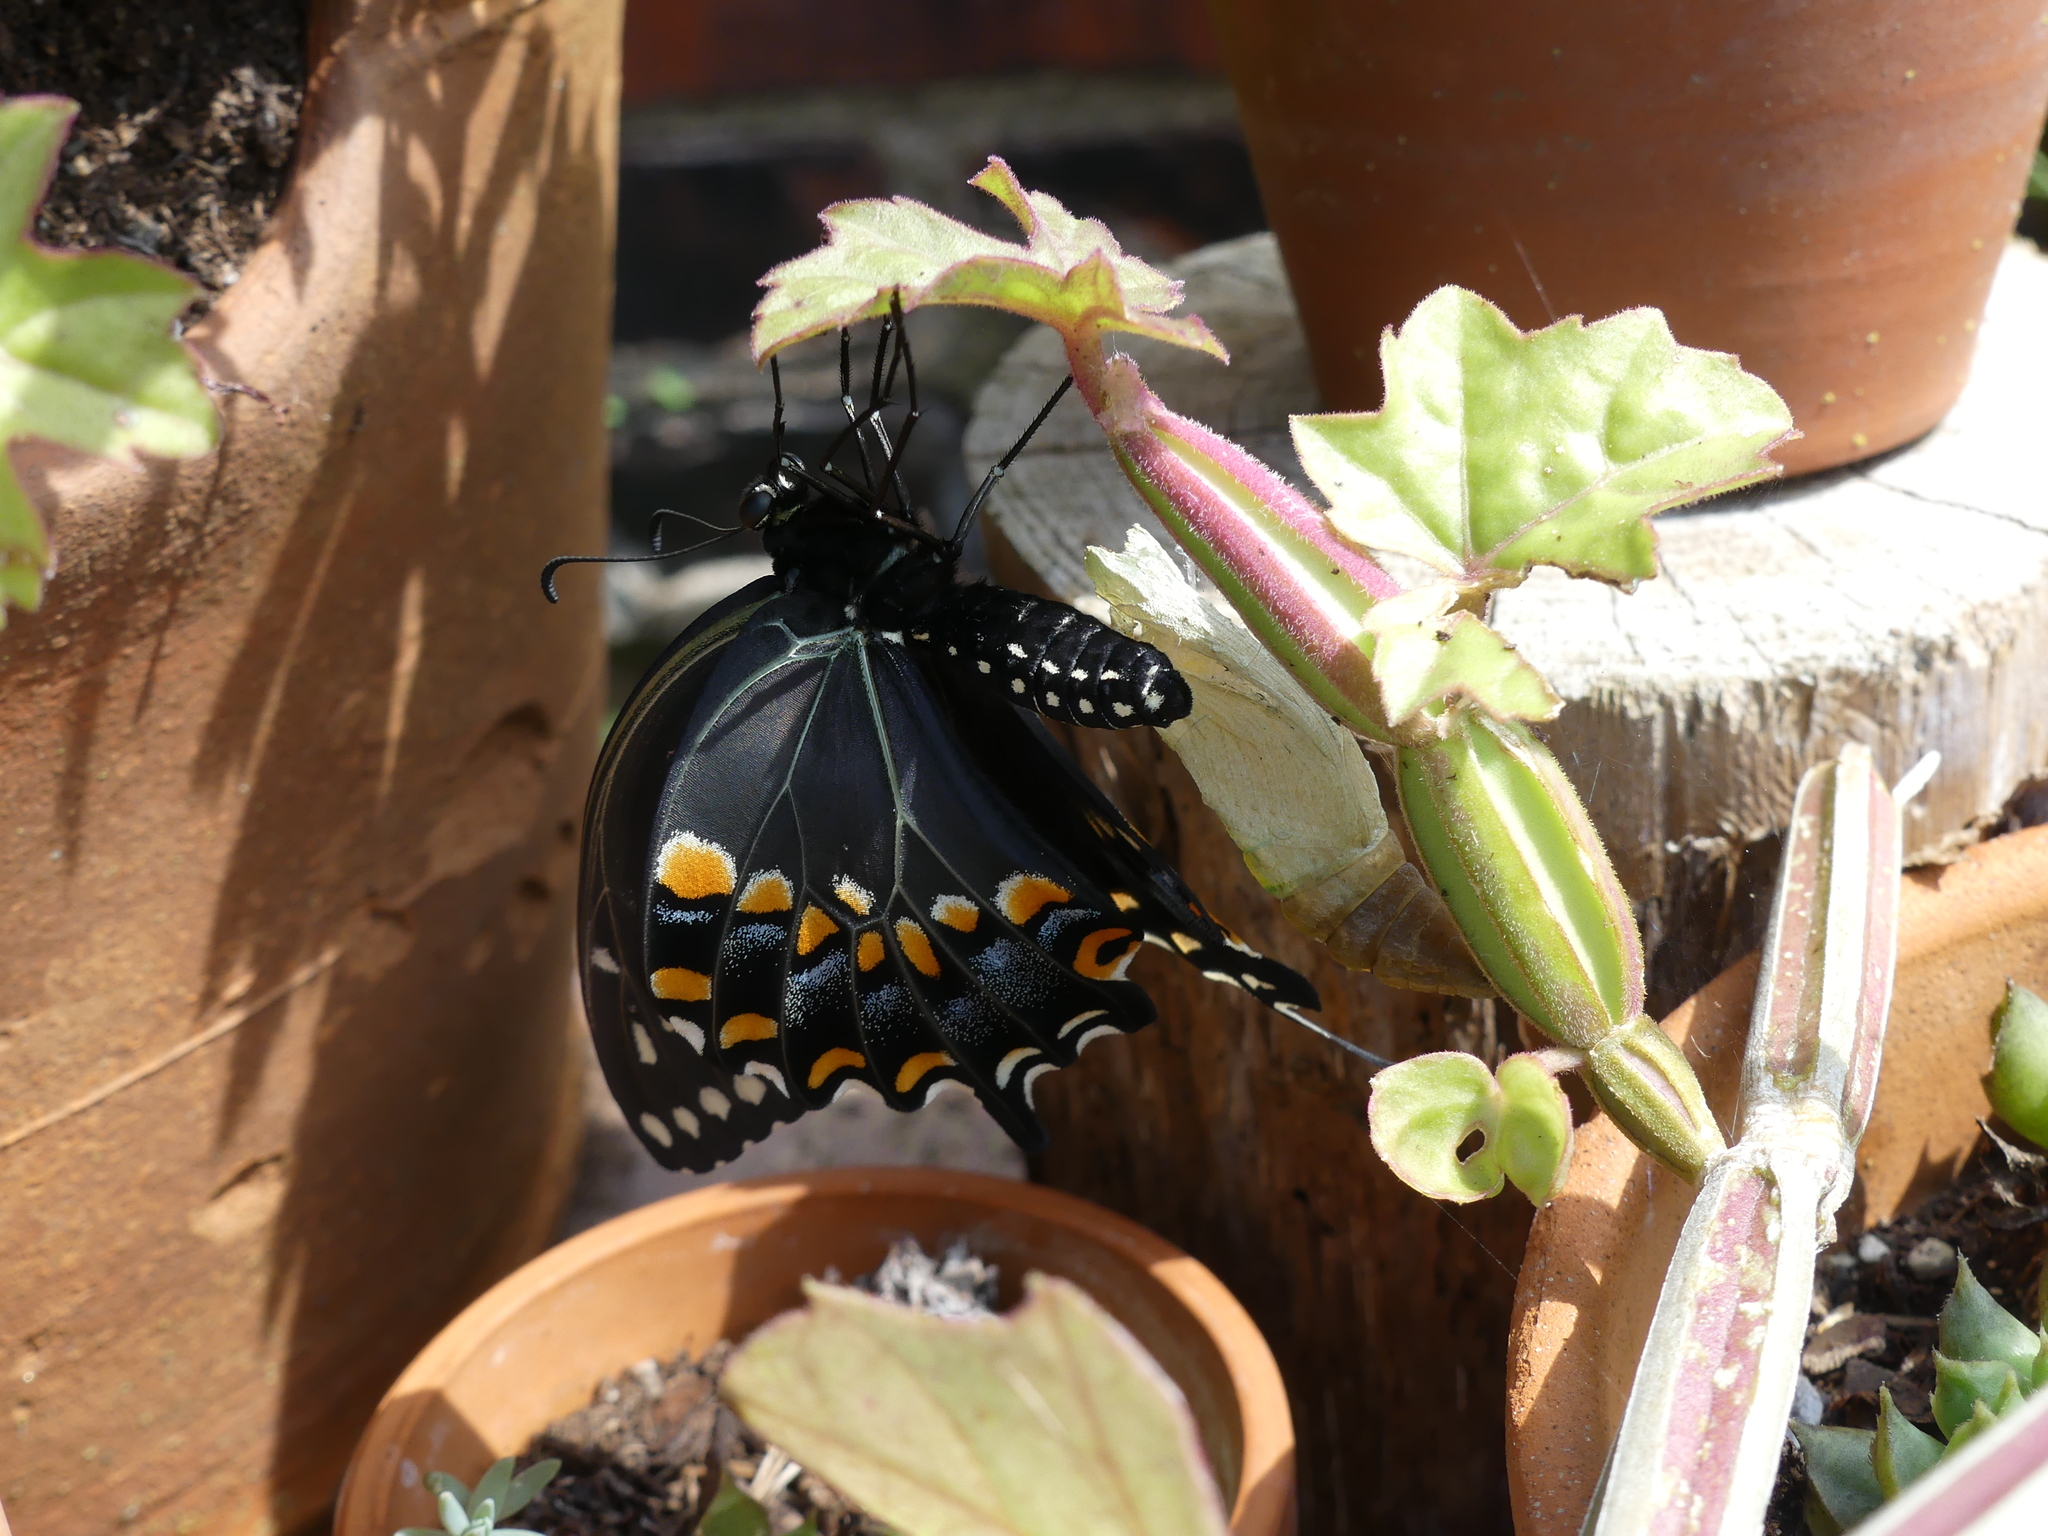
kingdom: Animalia
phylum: Arthropoda
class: Insecta
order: Lepidoptera
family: Papilionidae
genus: Papilio
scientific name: Papilio polyxenes
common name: Black swallowtail
